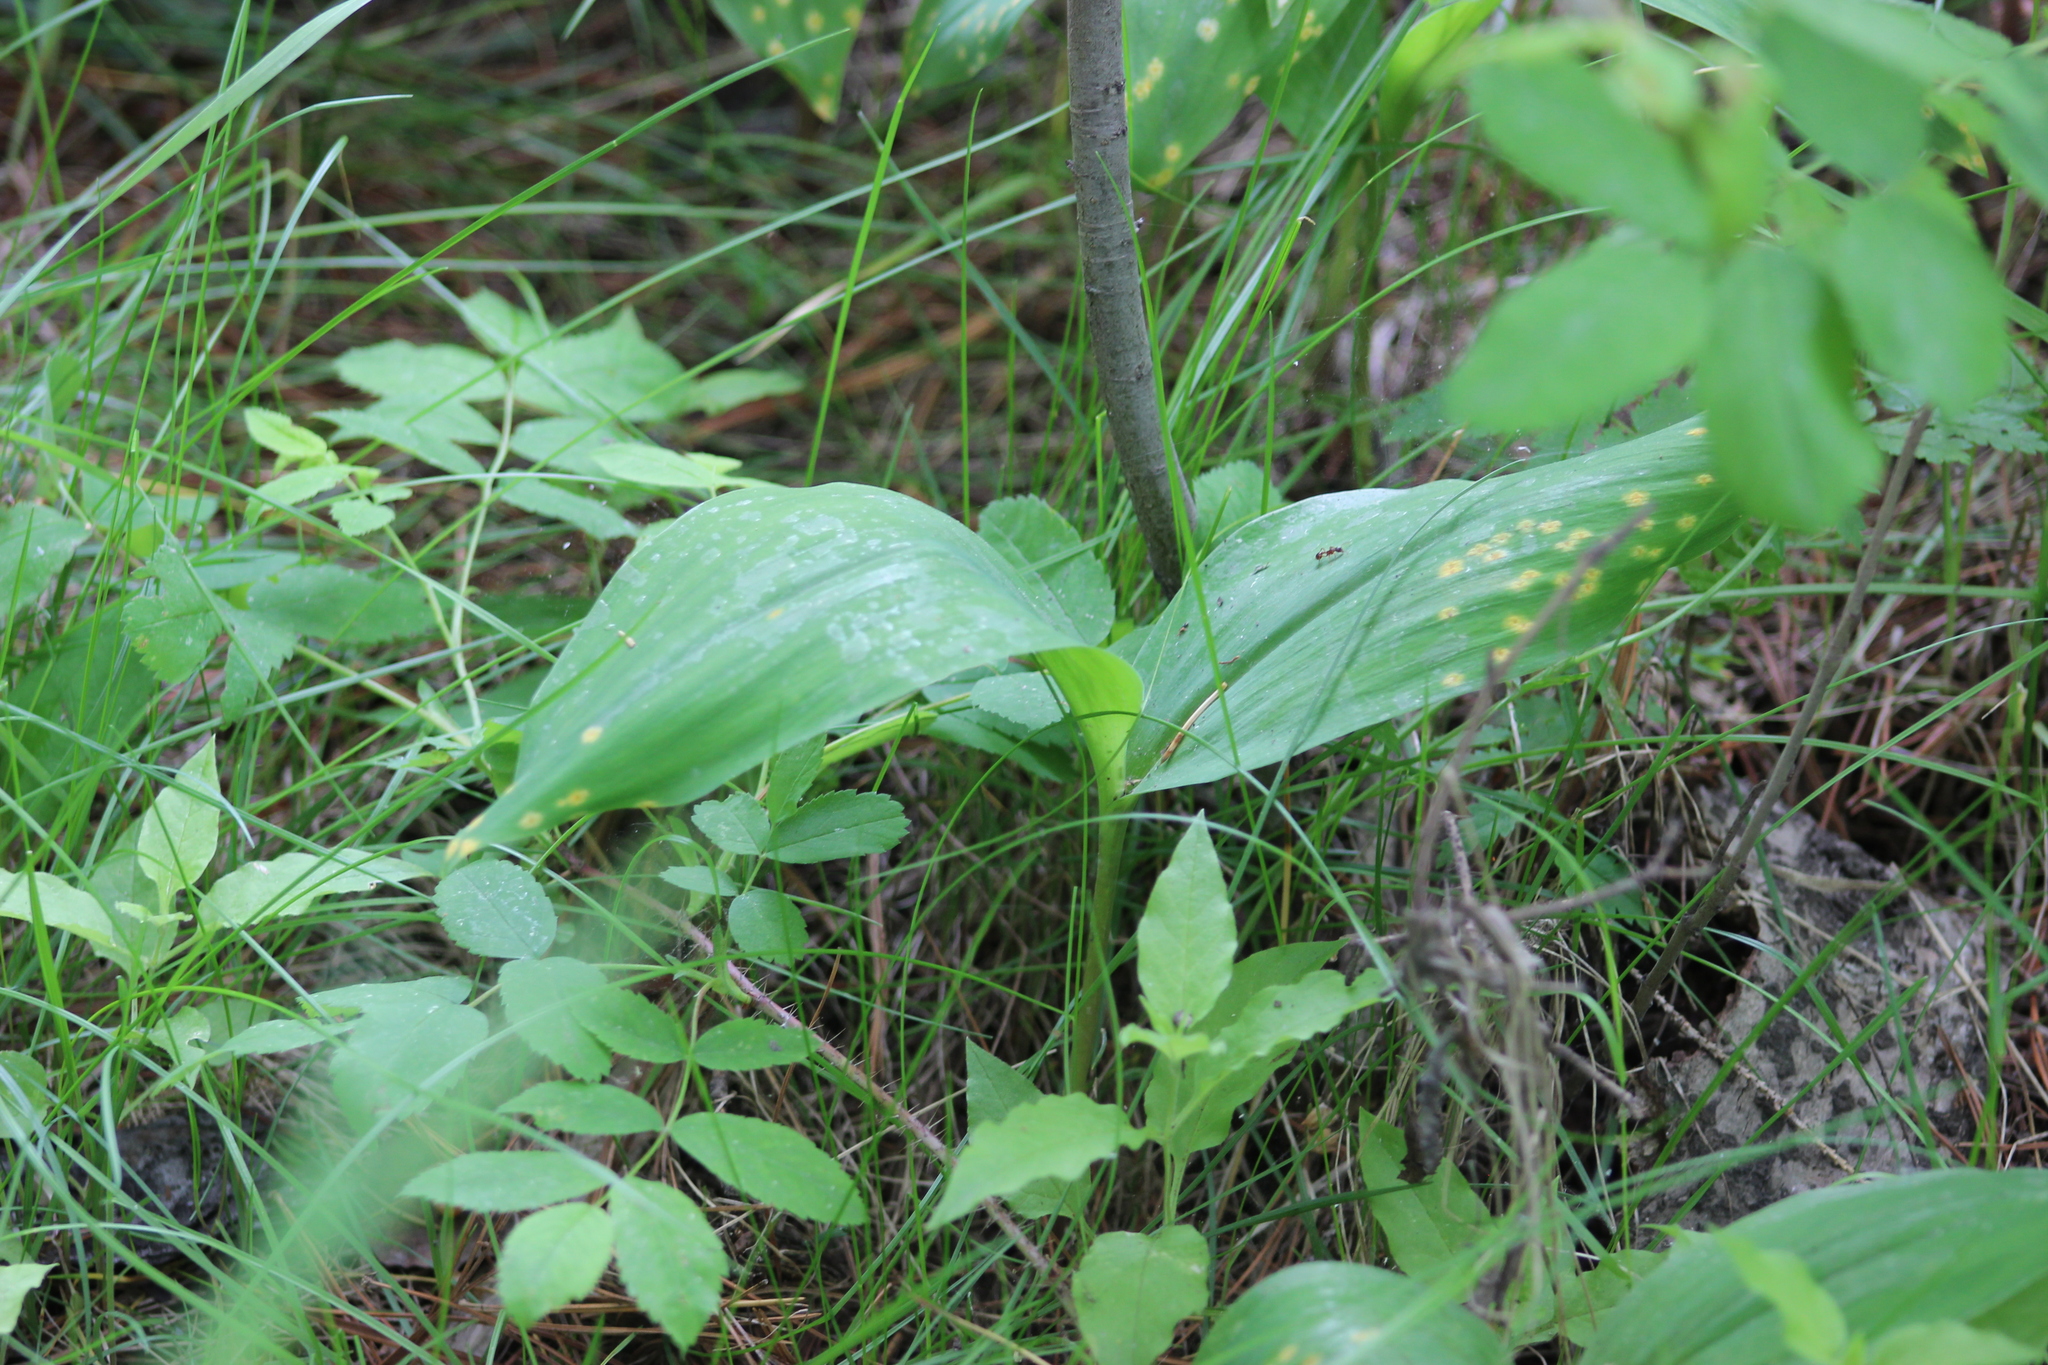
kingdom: Plantae
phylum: Tracheophyta
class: Liliopsida
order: Asparagales
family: Asparagaceae
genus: Convallaria
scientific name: Convallaria majalis
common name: Lily-of-the-valley
